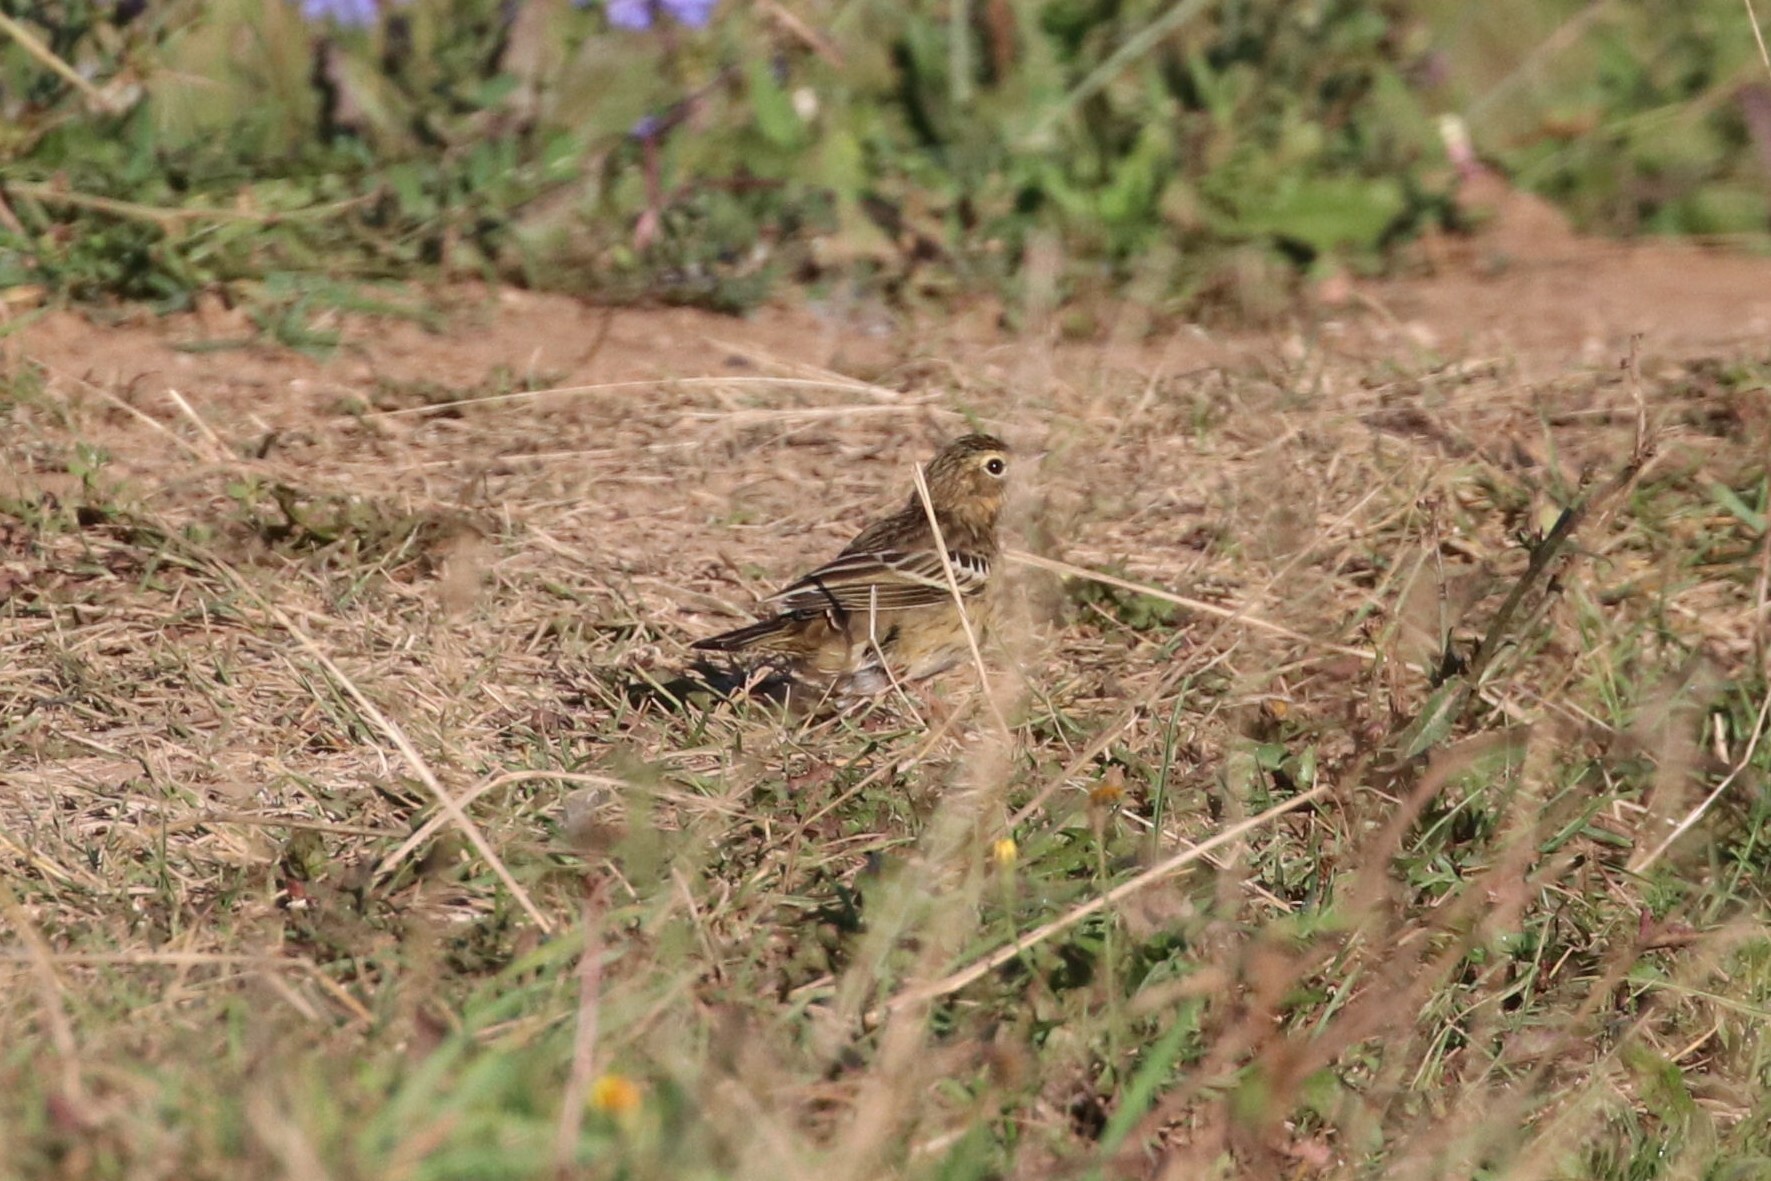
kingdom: Animalia
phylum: Chordata
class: Aves
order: Passeriformes
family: Motacillidae
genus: Anthus
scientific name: Anthus trivialis
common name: Tree pipit
